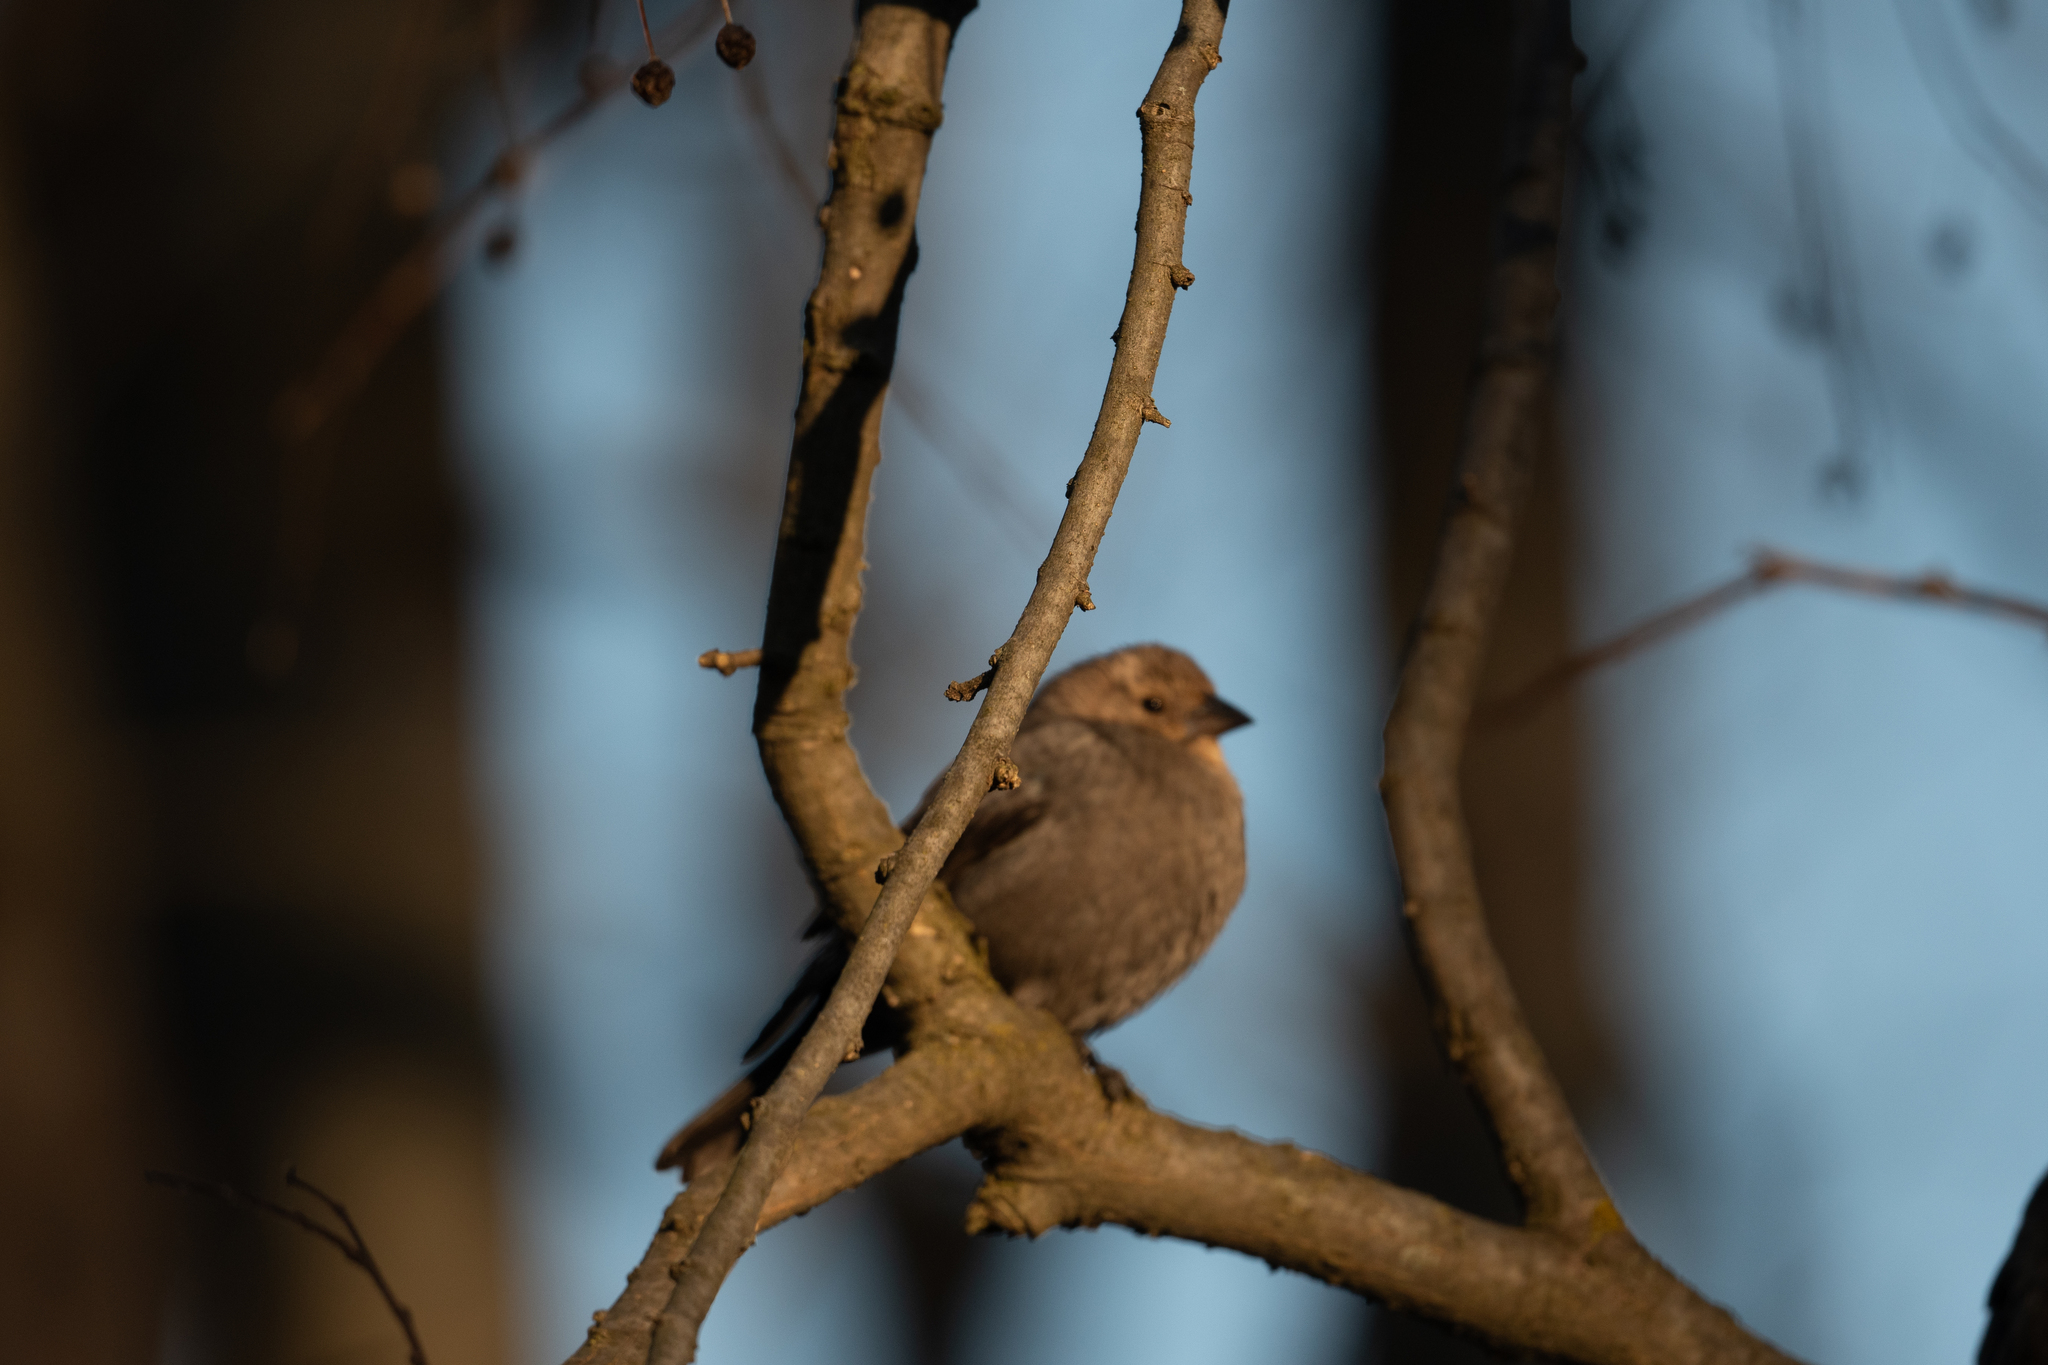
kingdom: Animalia
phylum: Chordata
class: Aves
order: Passeriformes
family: Icteridae
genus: Molothrus
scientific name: Molothrus ater
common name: Brown-headed cowbird
